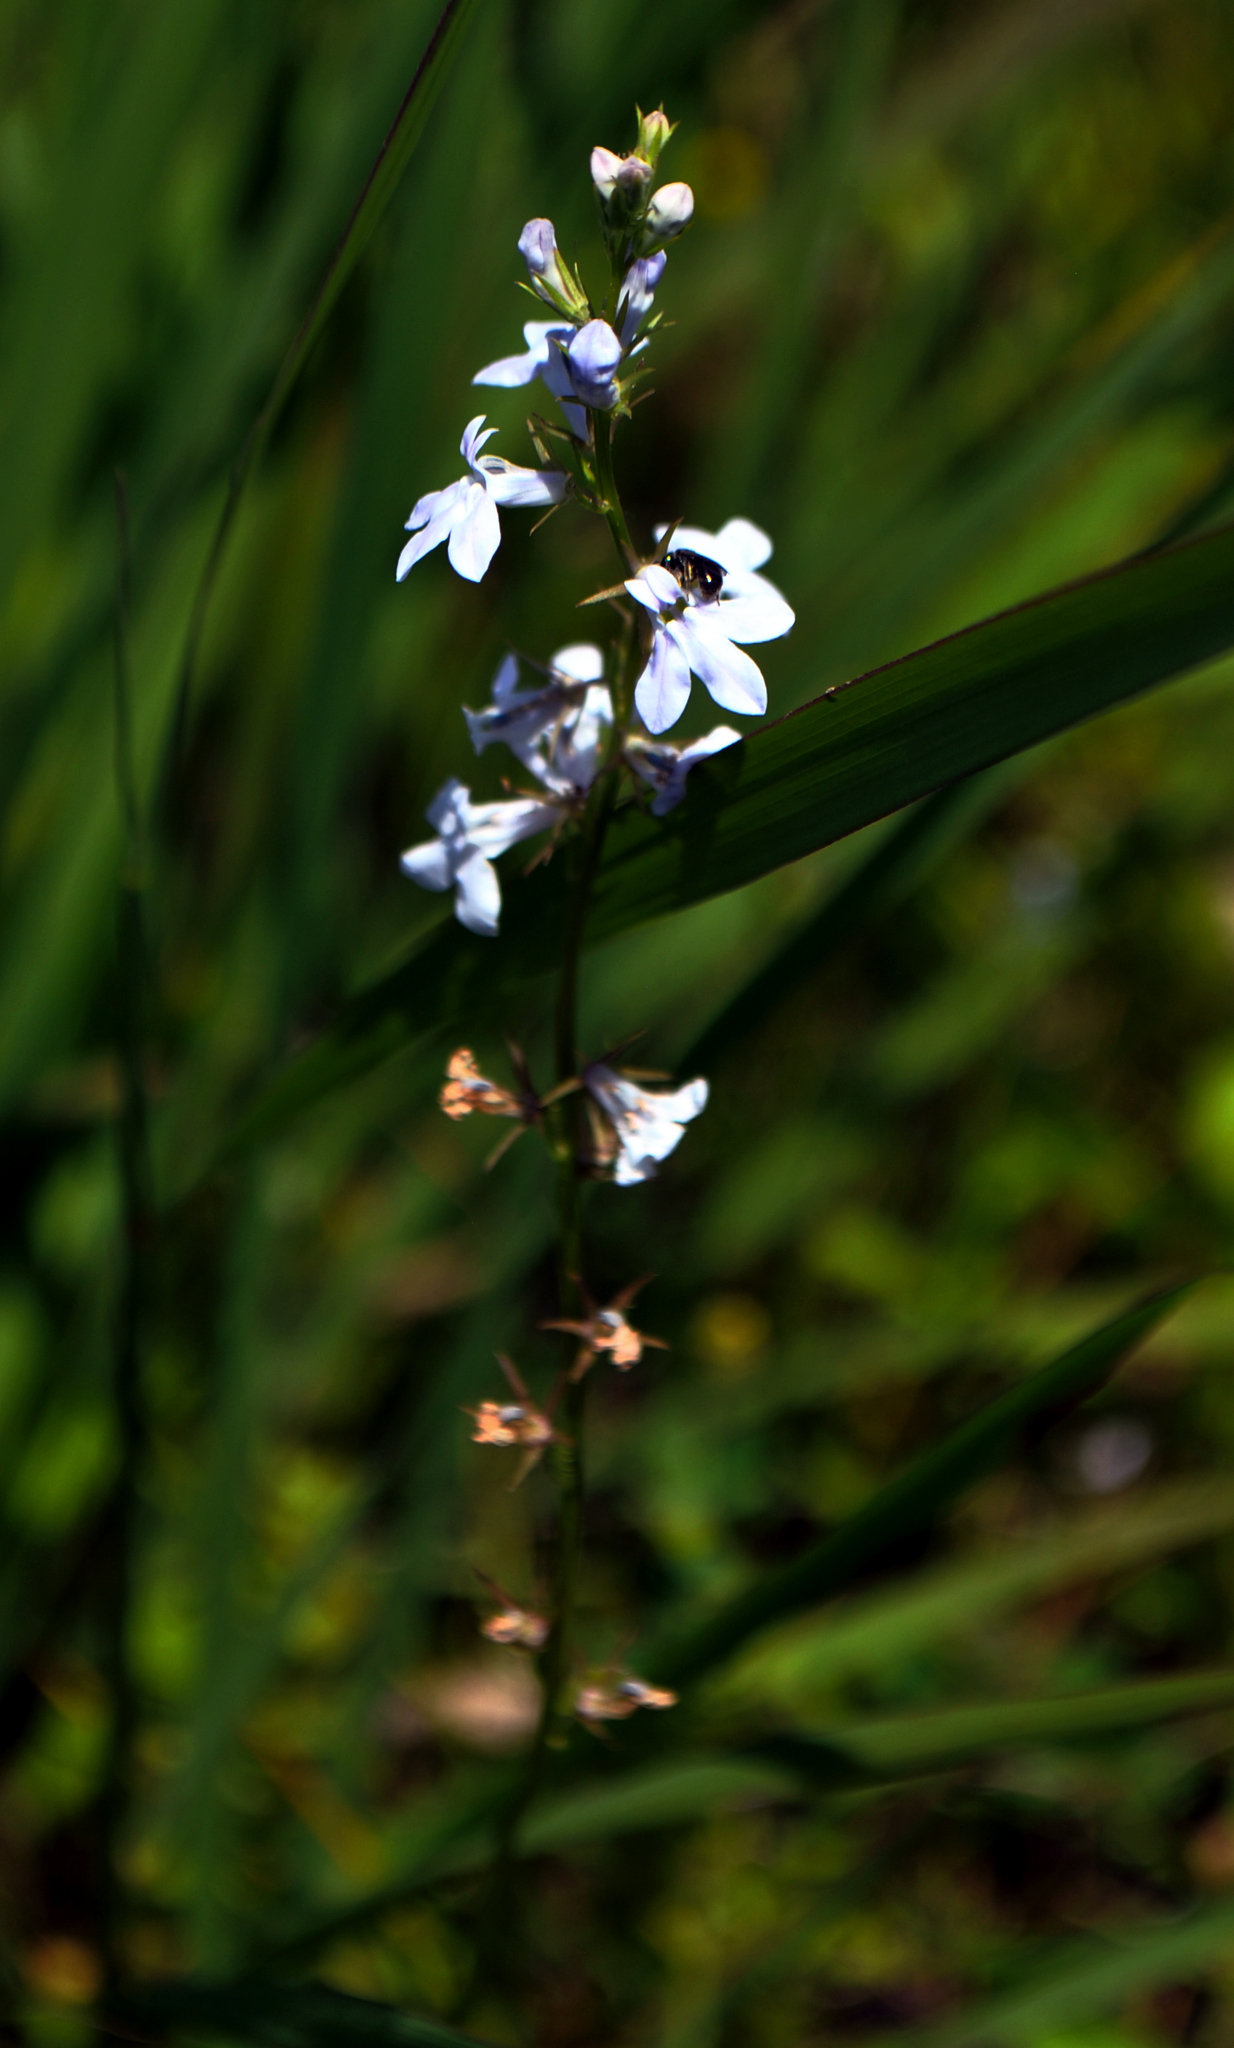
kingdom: Plantae
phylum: Tracheophyta
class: Magnoliopsida
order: Asterales
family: Campanulaceae
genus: Lobelia
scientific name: Lobelia spicata
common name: Pale-spike lobelia
